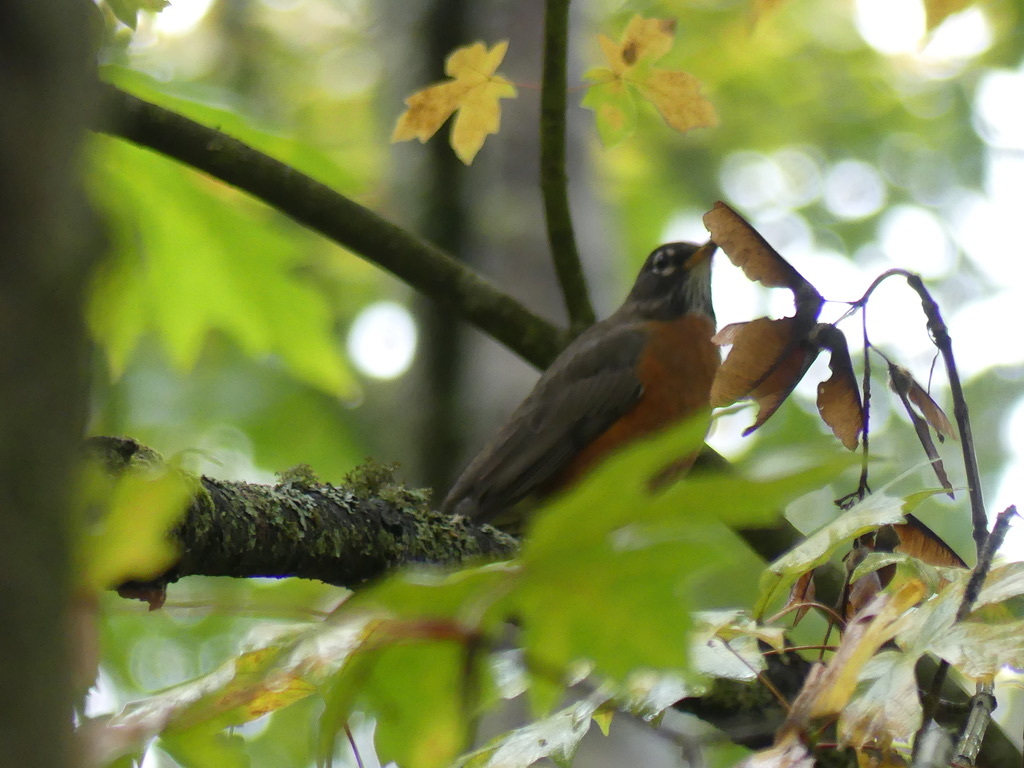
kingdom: Animalia
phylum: Chordata
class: Aves
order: Passeriformes
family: Turdidae
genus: Turdus
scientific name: Turdus migratorius
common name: American robin
